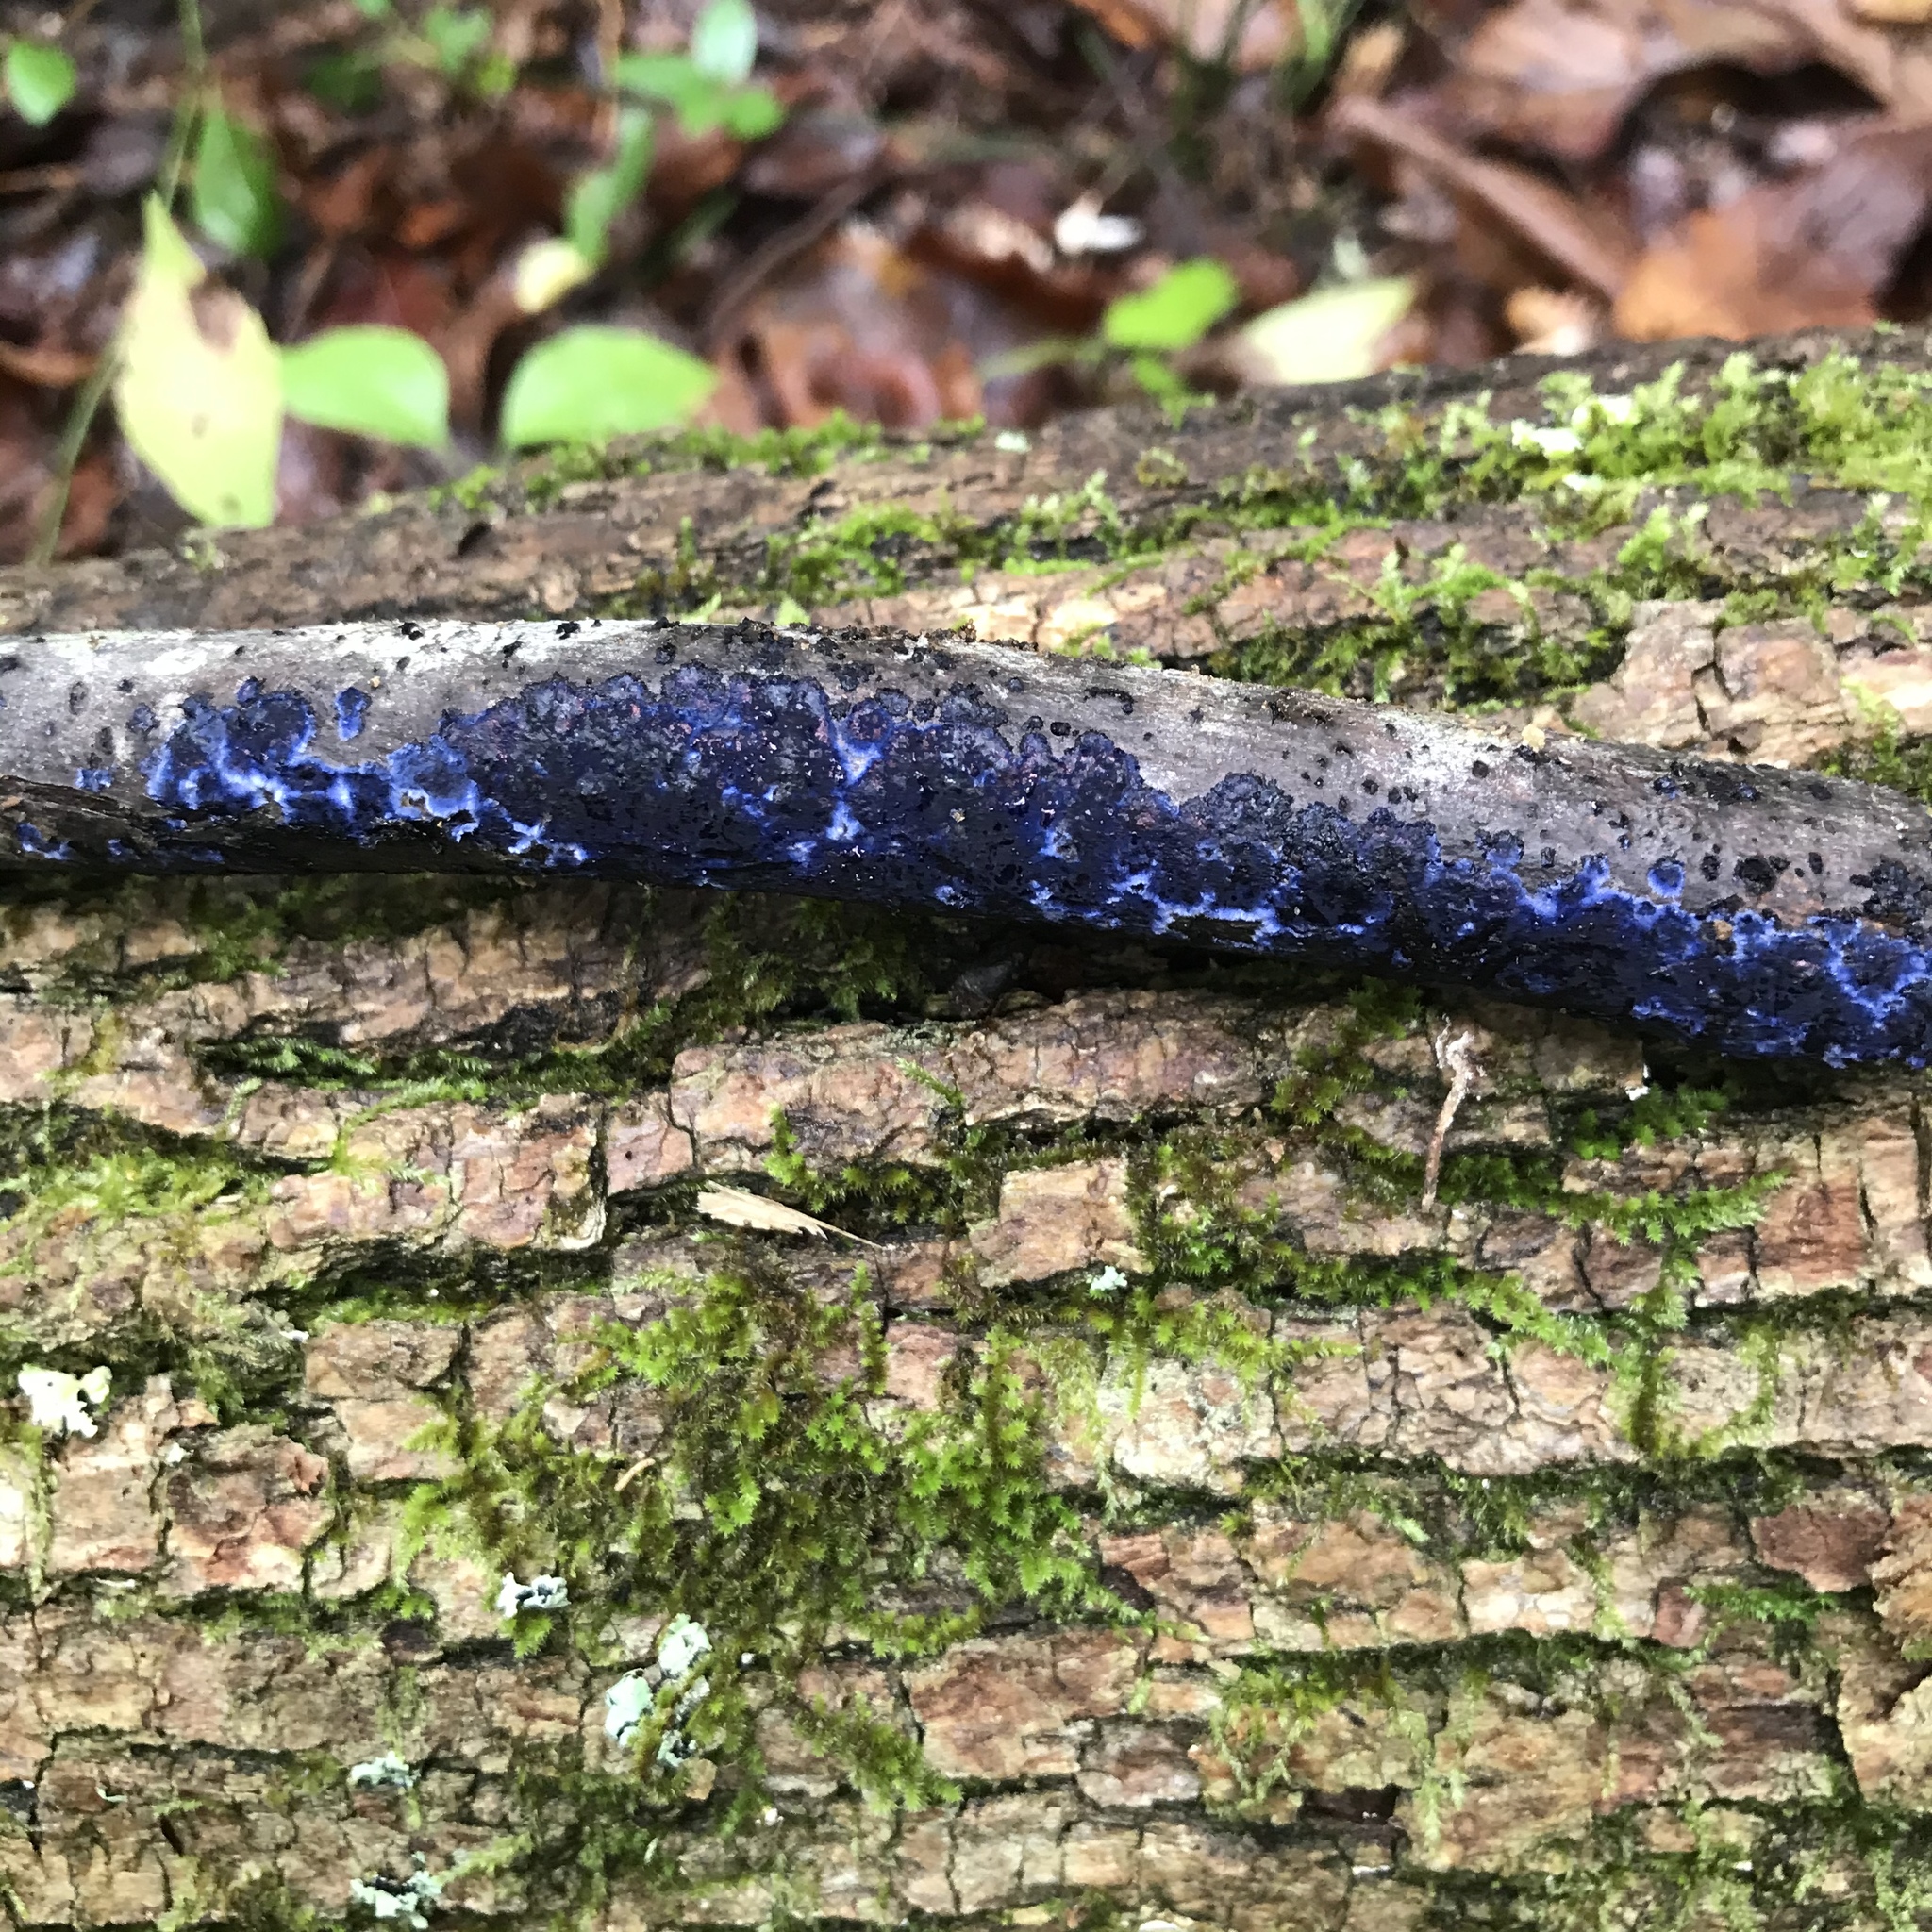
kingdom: Fungi
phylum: Basidiomycota
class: Agaricomycetes
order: Polyporales
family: Phanerochaetaceae
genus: Terana
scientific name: Terana coerulea
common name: Cobalt crust
